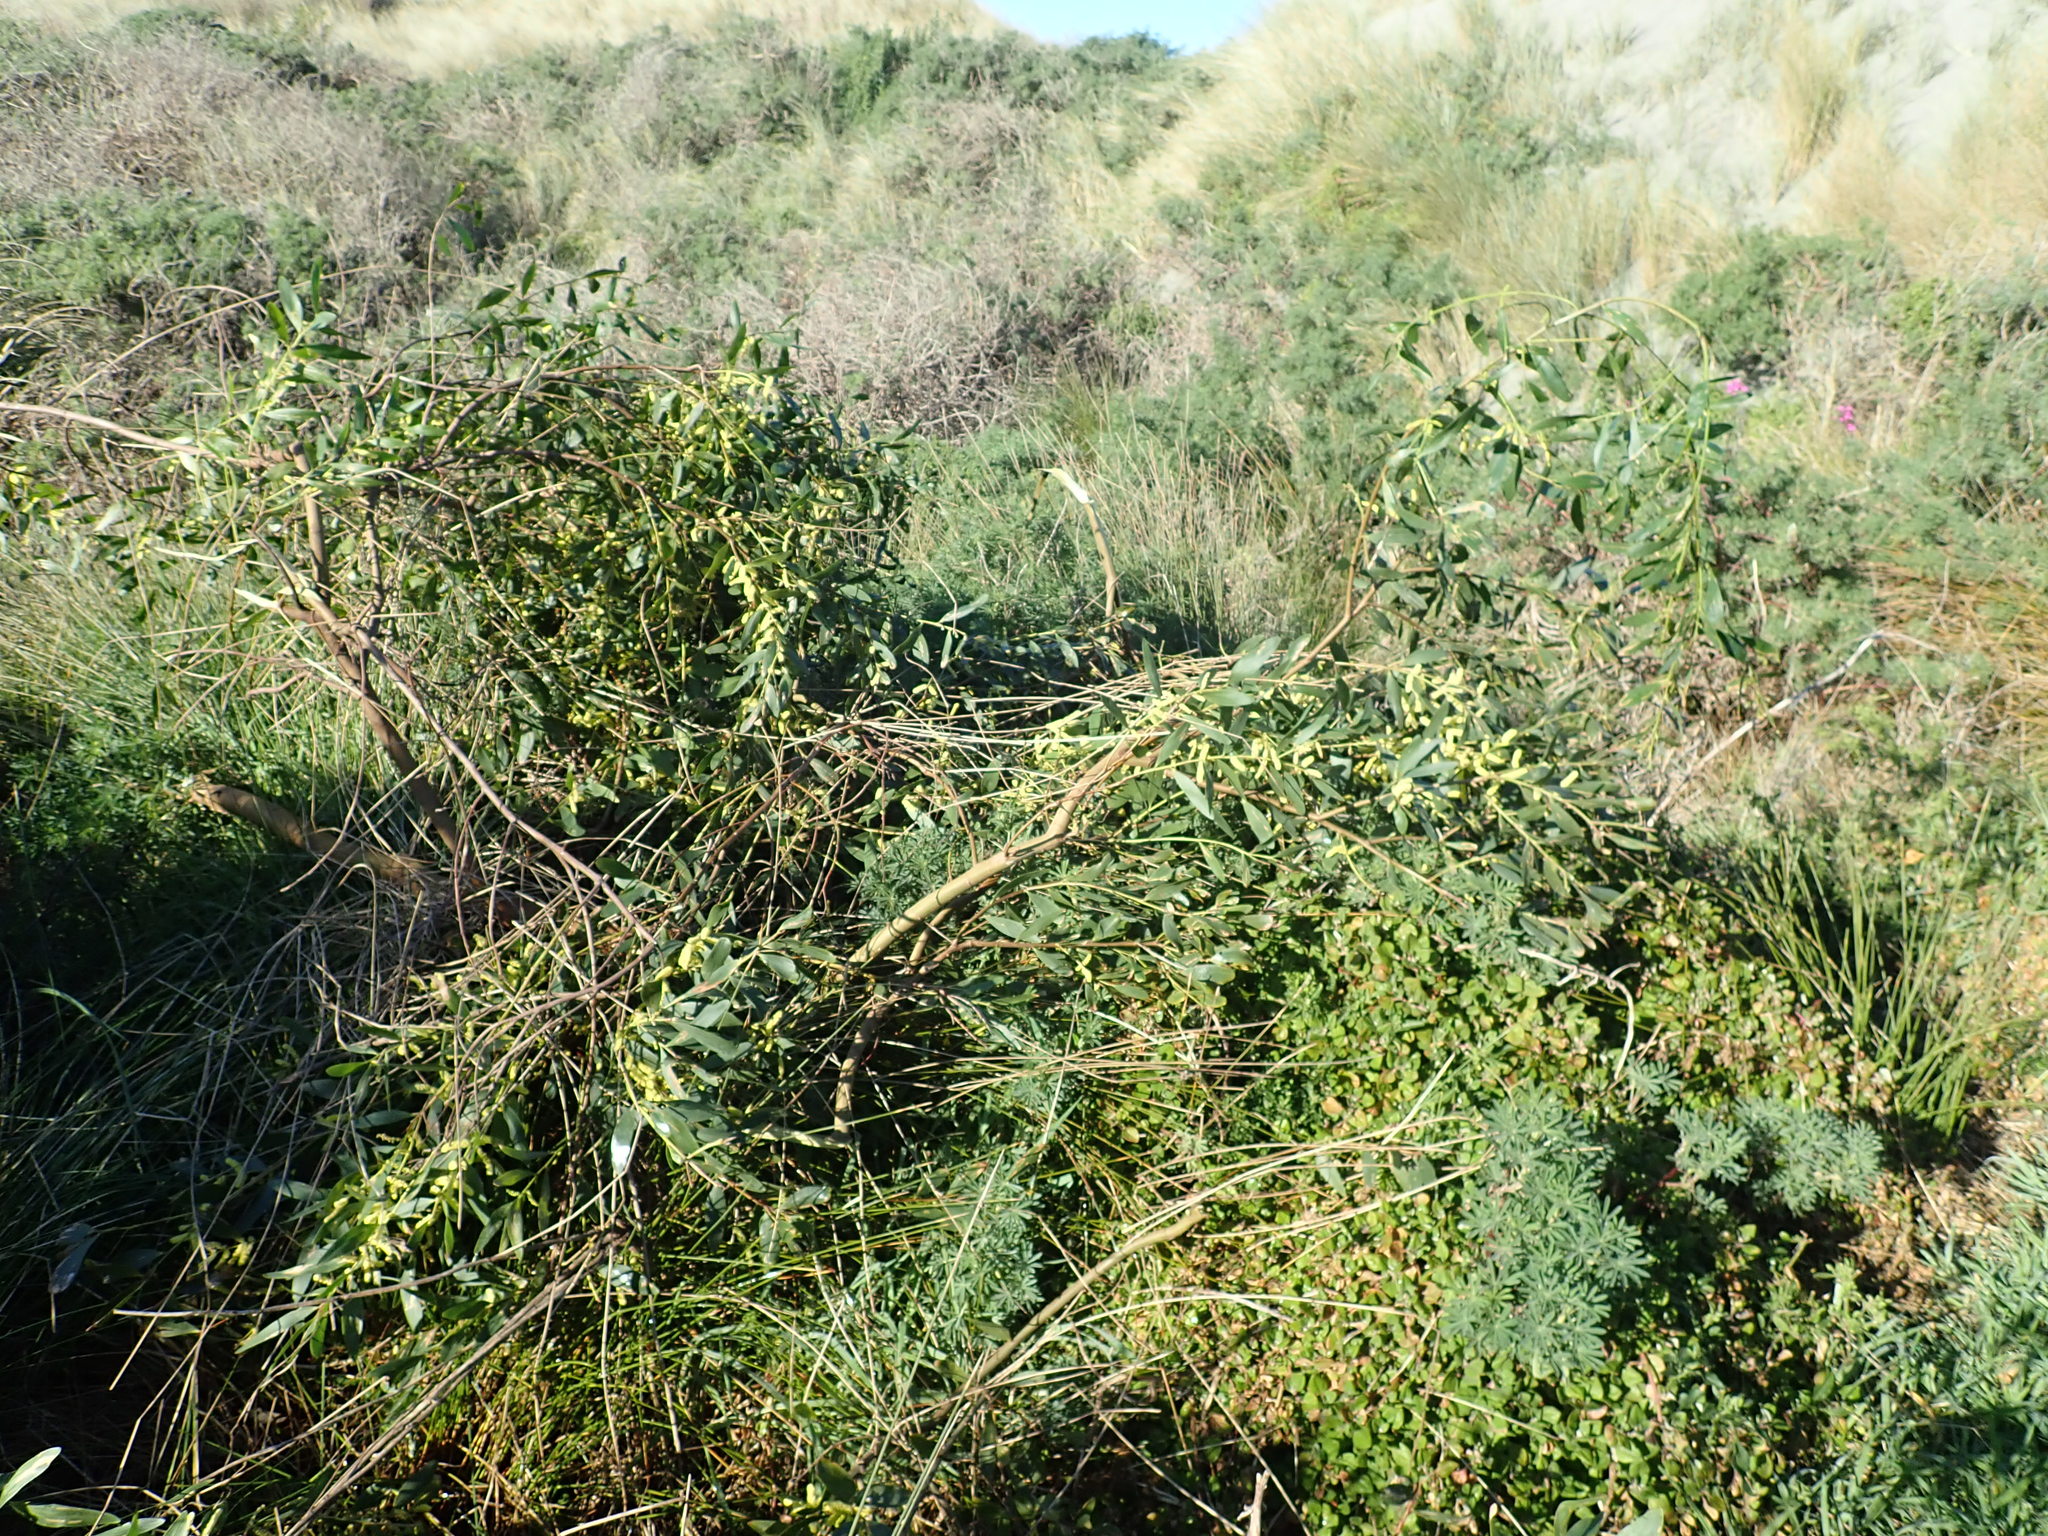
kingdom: Plantae
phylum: Tracheophyta
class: Magnoliopsida
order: Fabales
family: Fabaceae
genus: Acacia
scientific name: Acacia longifolia
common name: Sydney golden wattle
